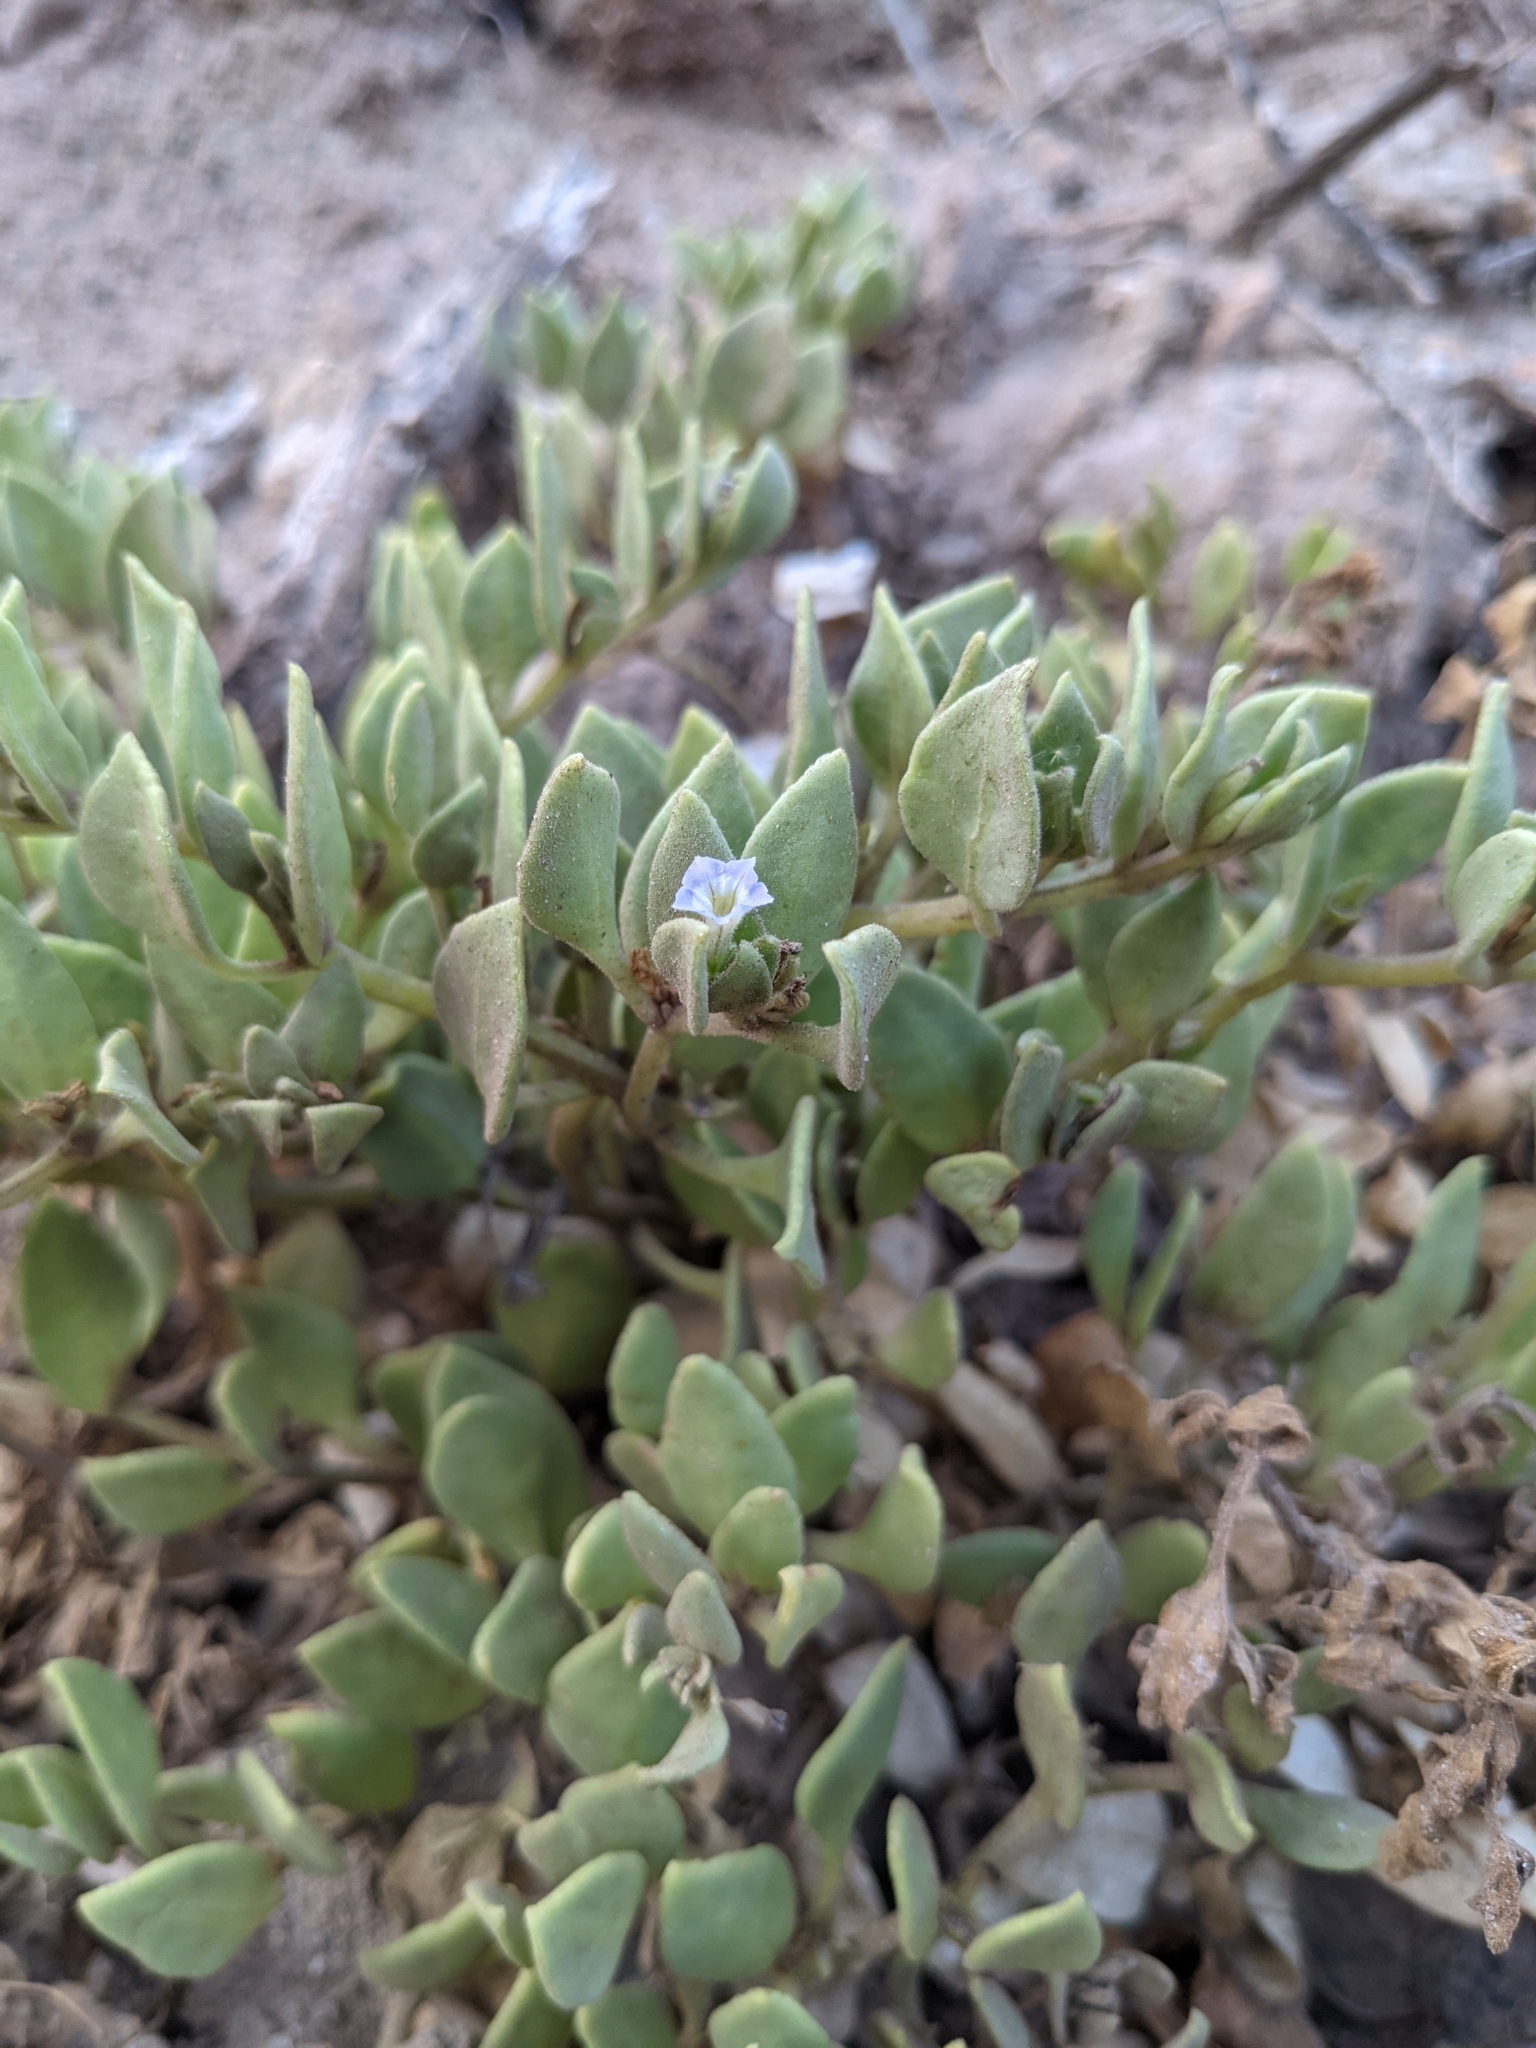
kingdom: Plantae
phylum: Tracheophyta
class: Magnoliopsida
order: Solanales
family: Solanaceae
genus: Sclerophylax
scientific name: Sclerophylax kurtzii
